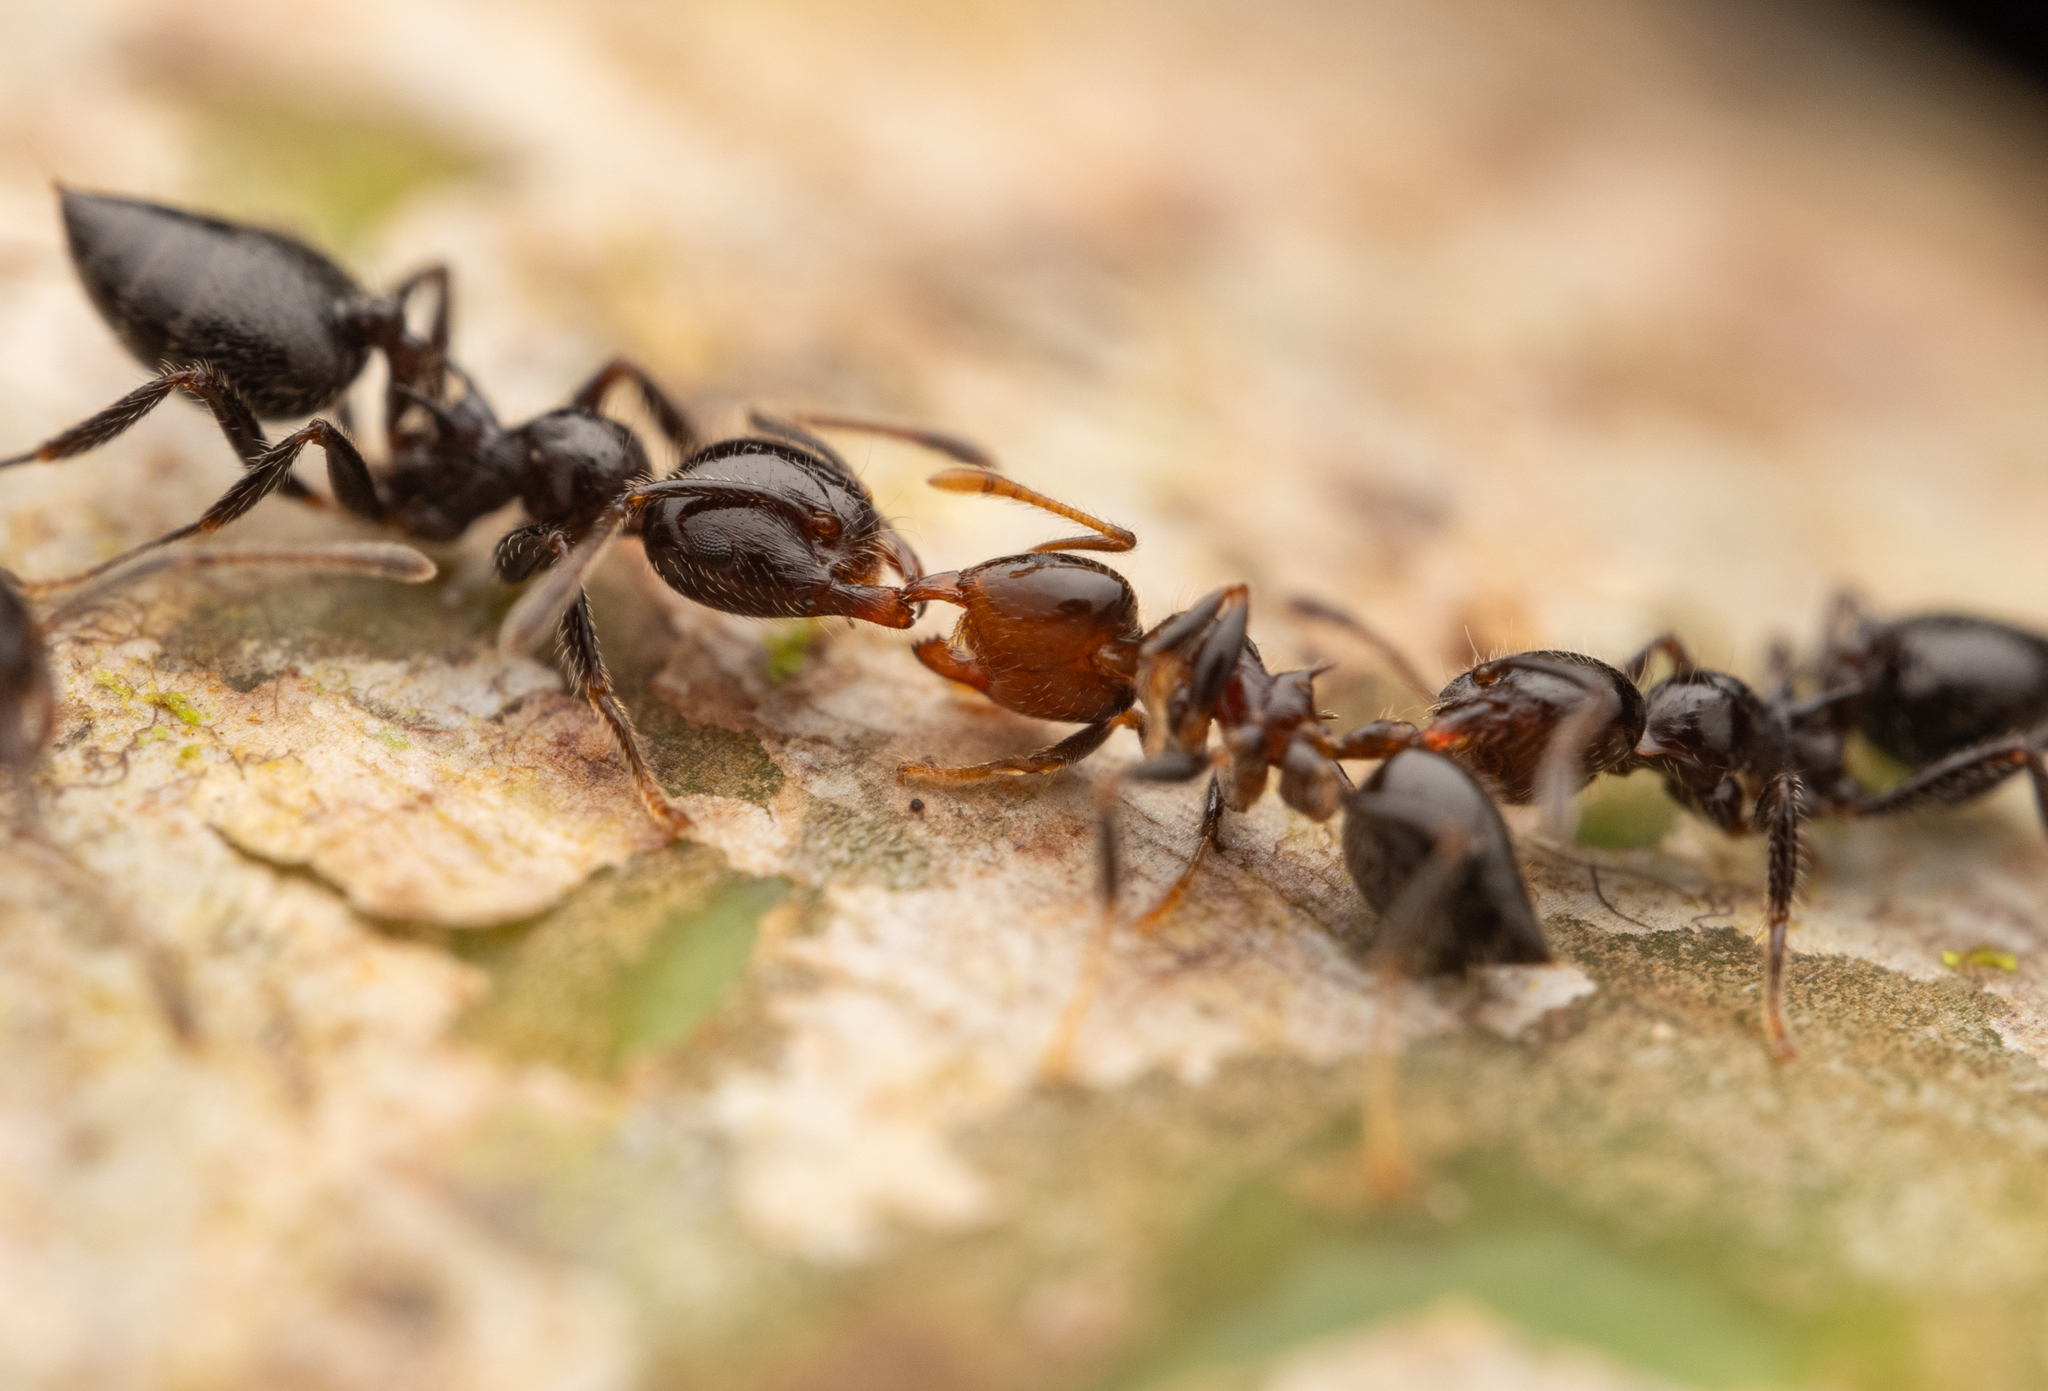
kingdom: Animalia
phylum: Arthropoda
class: Insecta
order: Hymenoptera
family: Formicidae
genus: Crematogaster
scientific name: Crematogaster irritabilis
